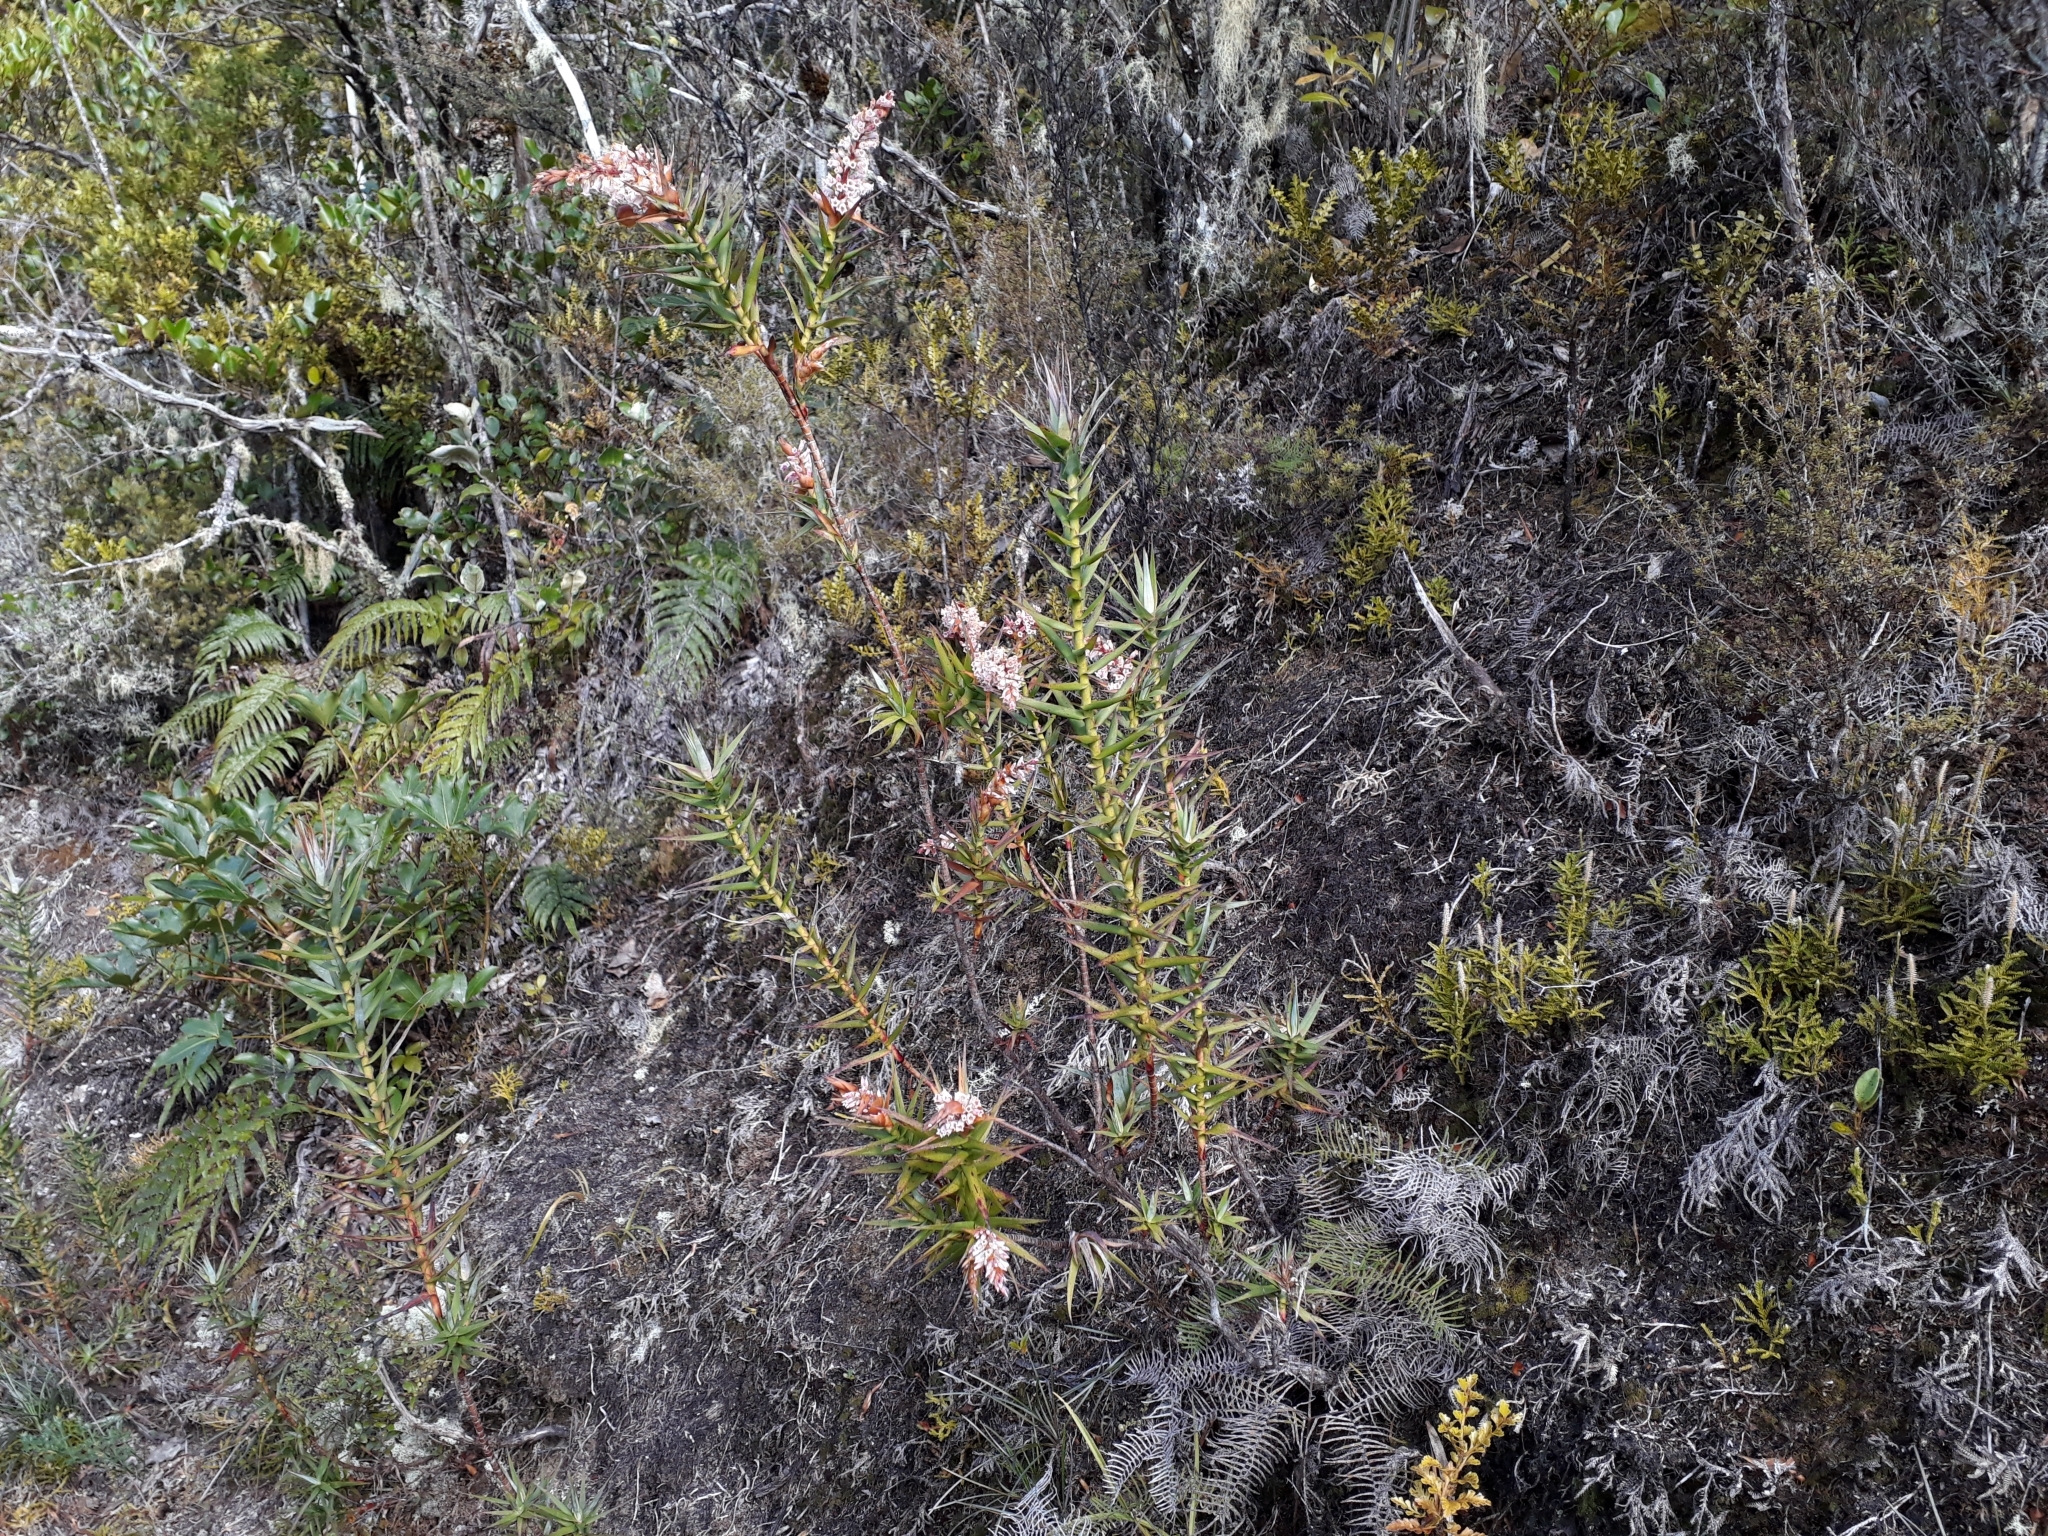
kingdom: Plantae
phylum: Tracheophyta
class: Magnoliopsida
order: Ericales
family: Ericaceae
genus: Dracophyllum
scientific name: Dracophyllum strictum
